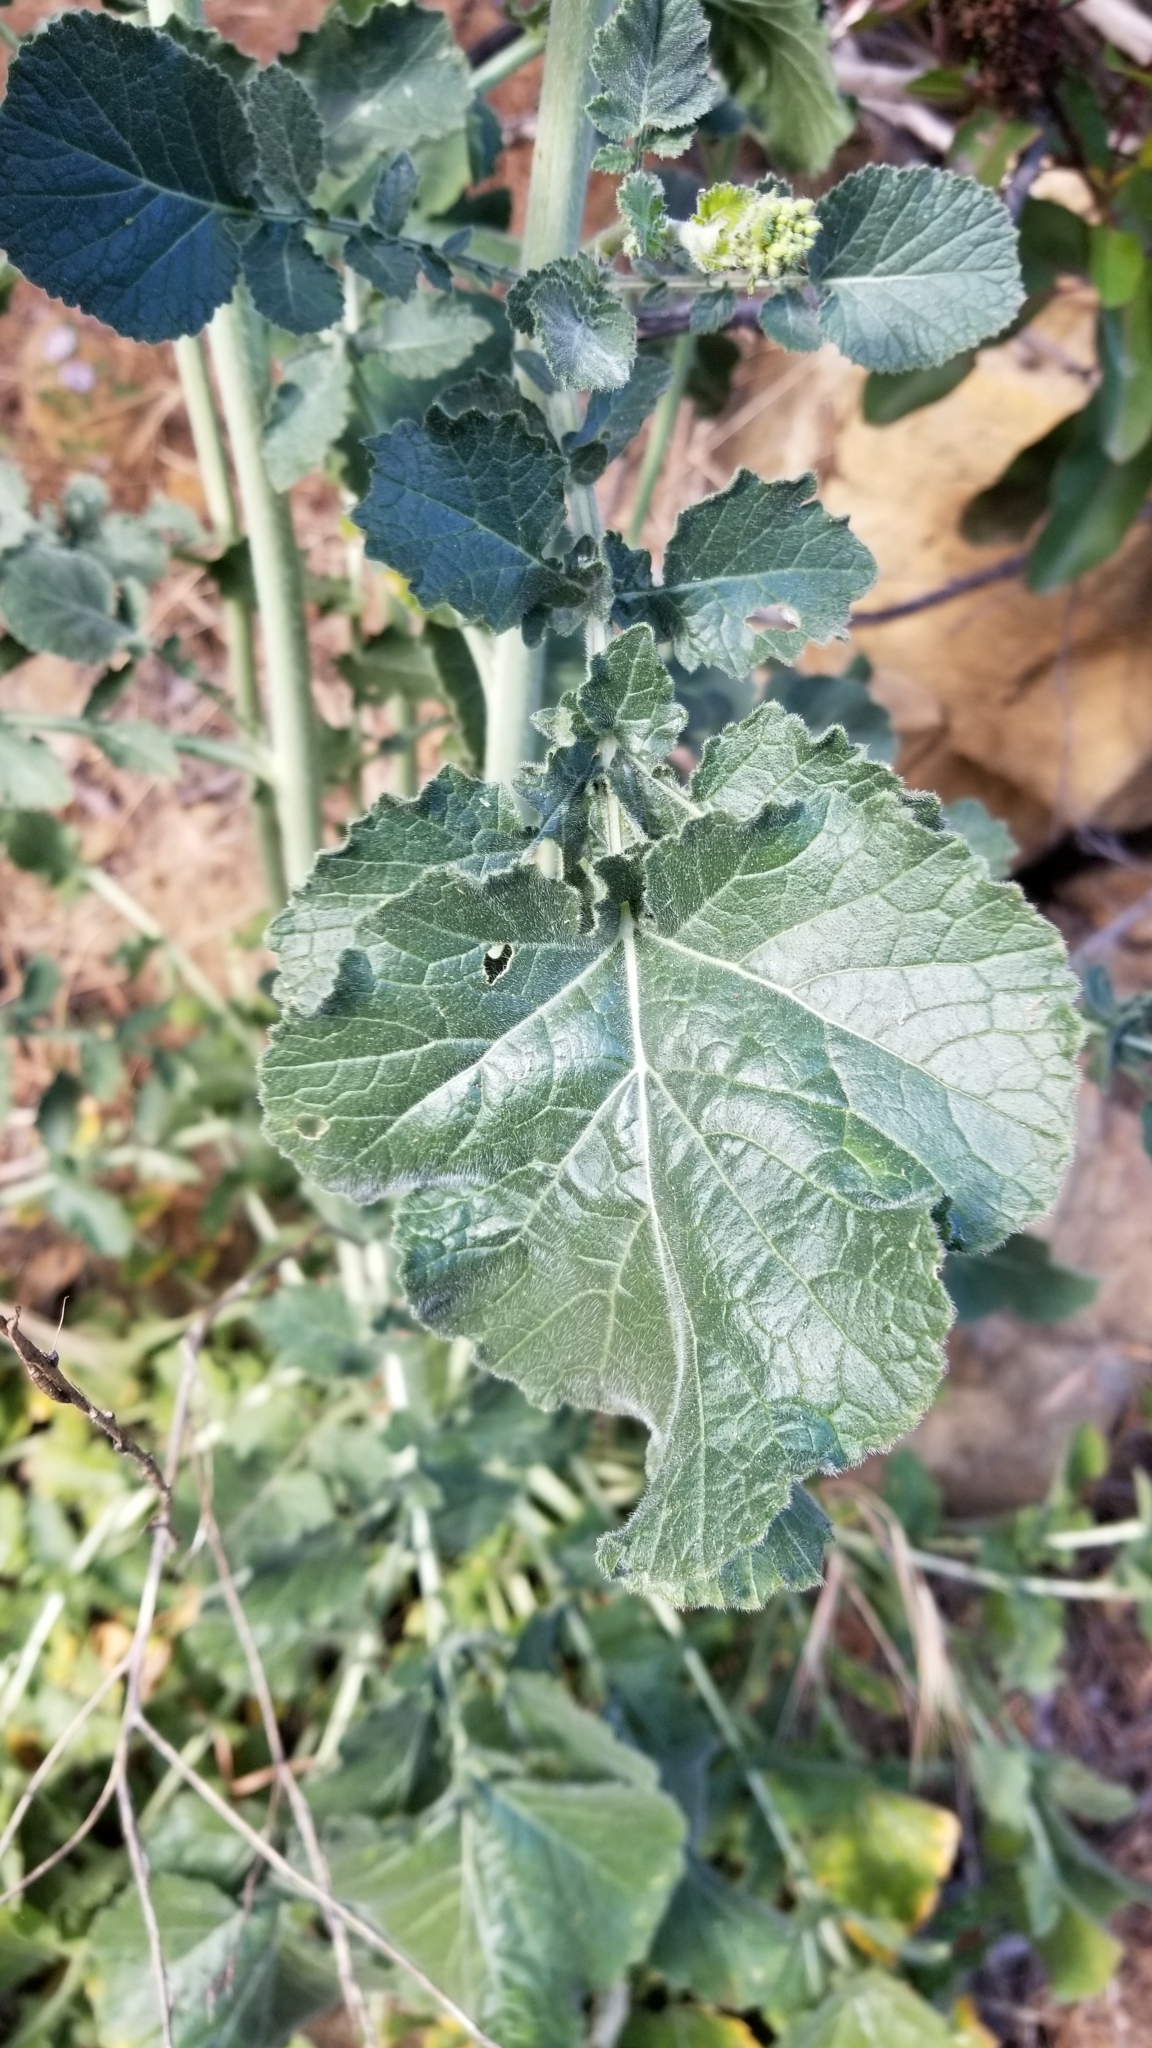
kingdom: Plantae
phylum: Tracheophyta
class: Magnoliopsida
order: Brassicales
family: Brassicaceae
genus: Brassica
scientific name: Brassica nigra
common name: Black mustard
